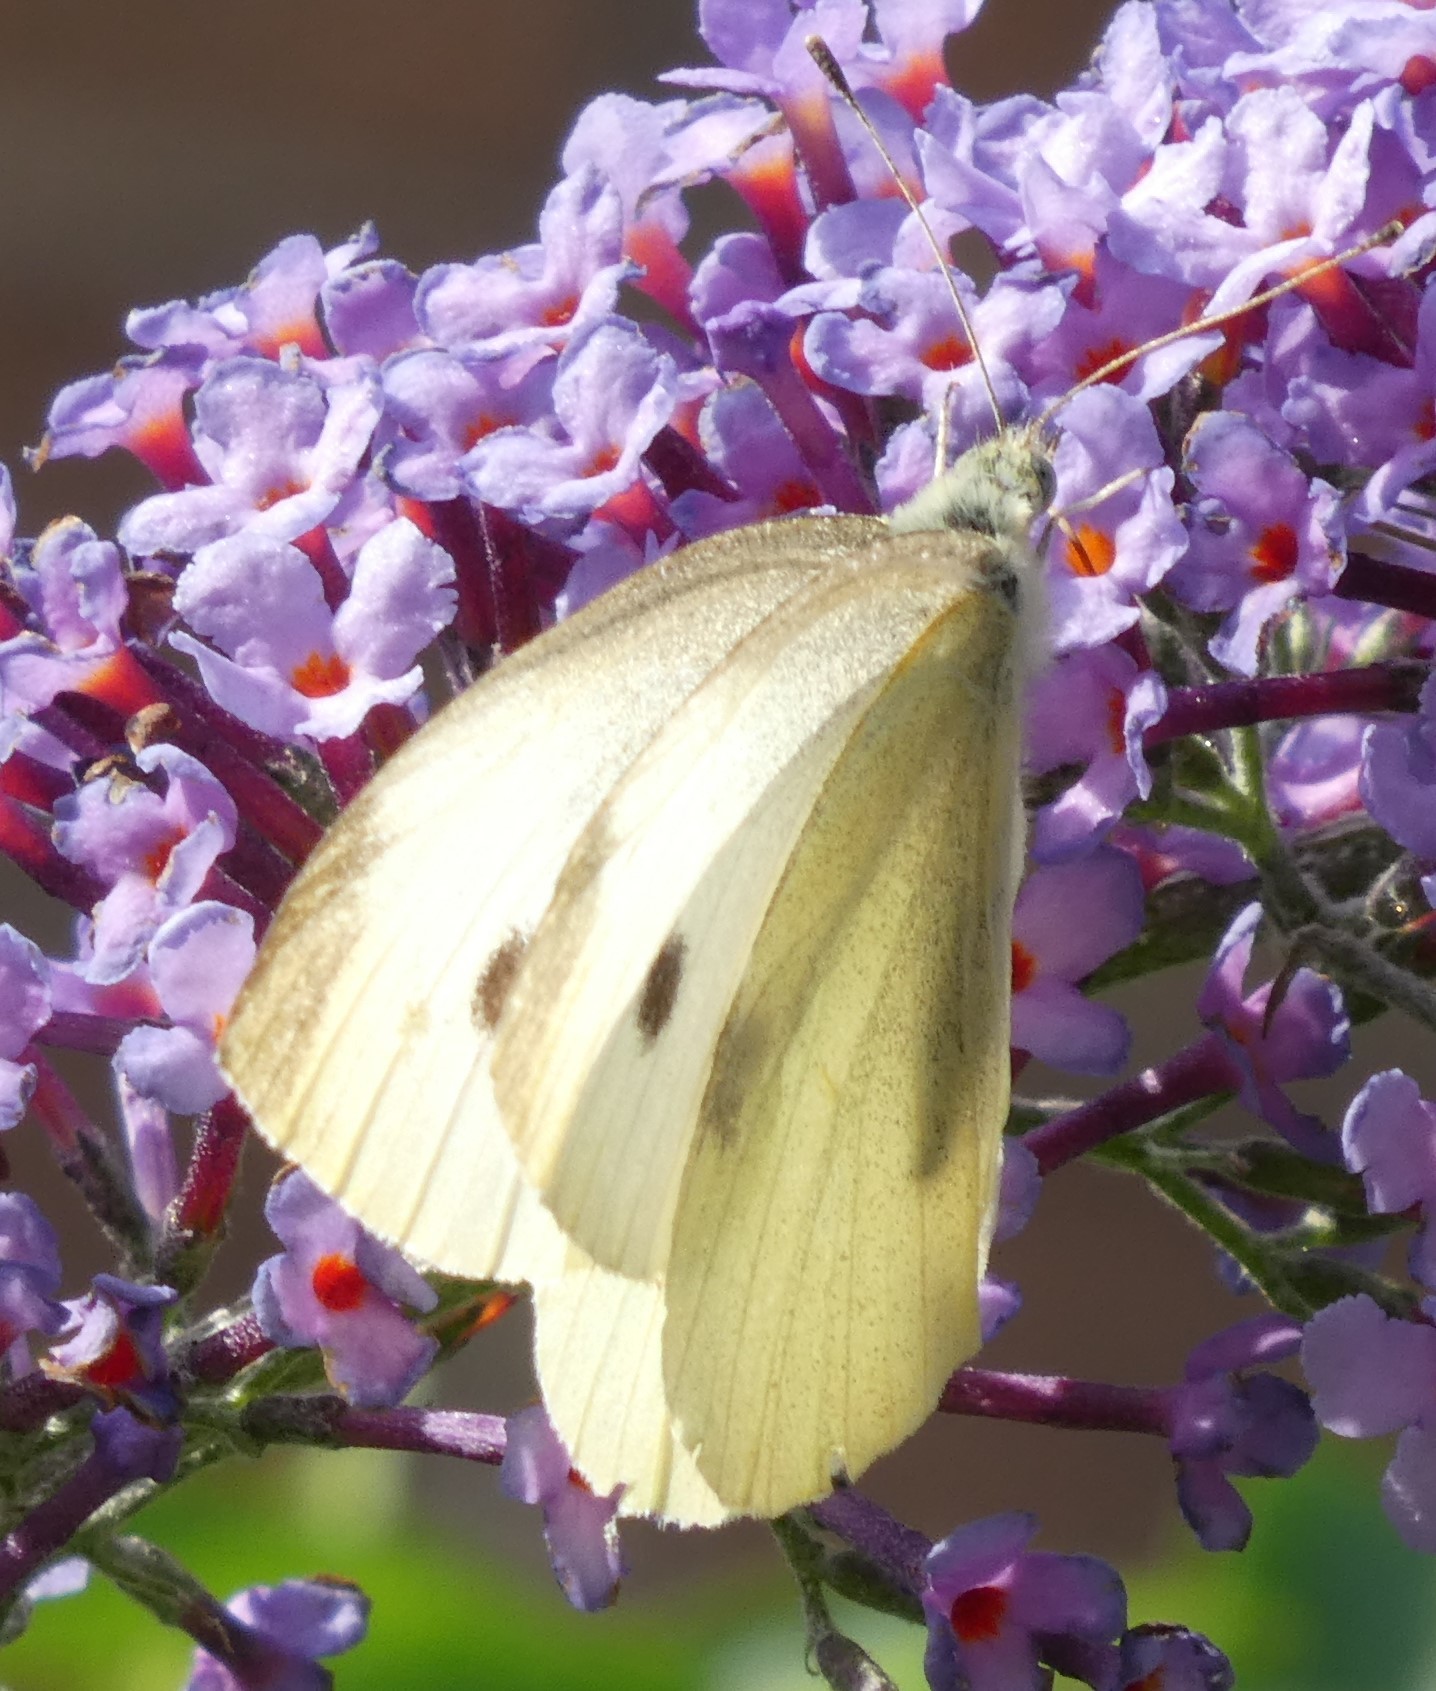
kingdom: Animalia
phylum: Arthropoda
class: Insecta
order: Lepidoptera
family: Pieridae
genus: Pieris
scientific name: Pieris rapae
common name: Small white
